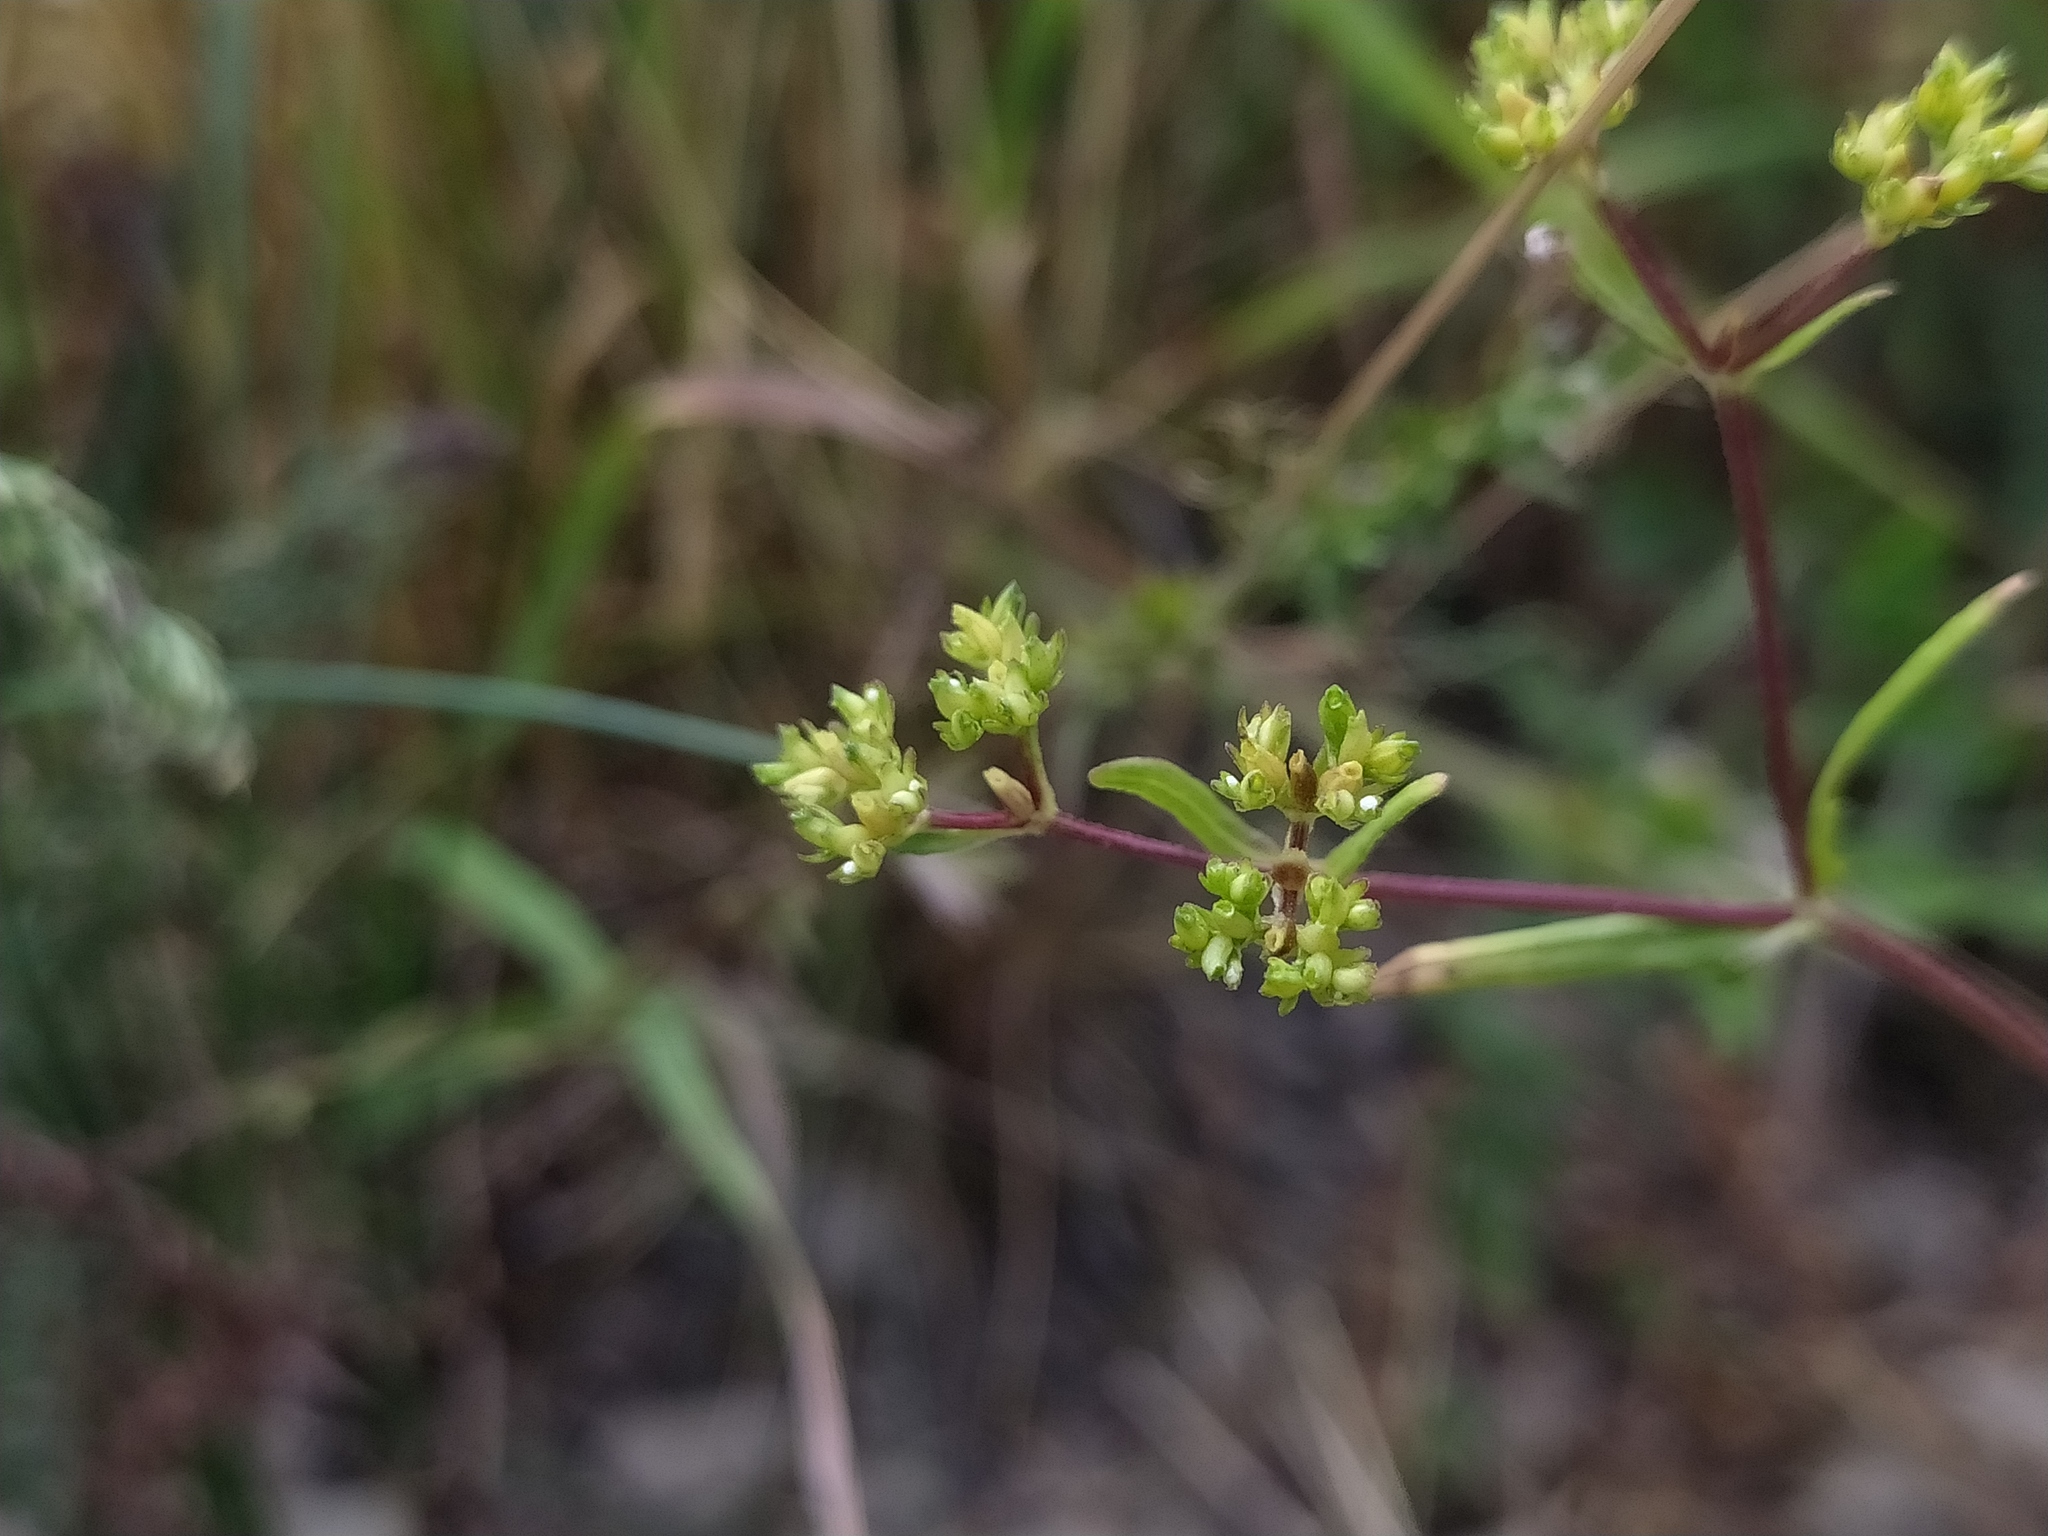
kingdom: Plantae
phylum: Tracheophyta
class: Magnoliopsida
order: Dipsacales
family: Caprifoliaceae
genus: Valerianella
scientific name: Valerianella dentata
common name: Narrow-fruited cornsalad
